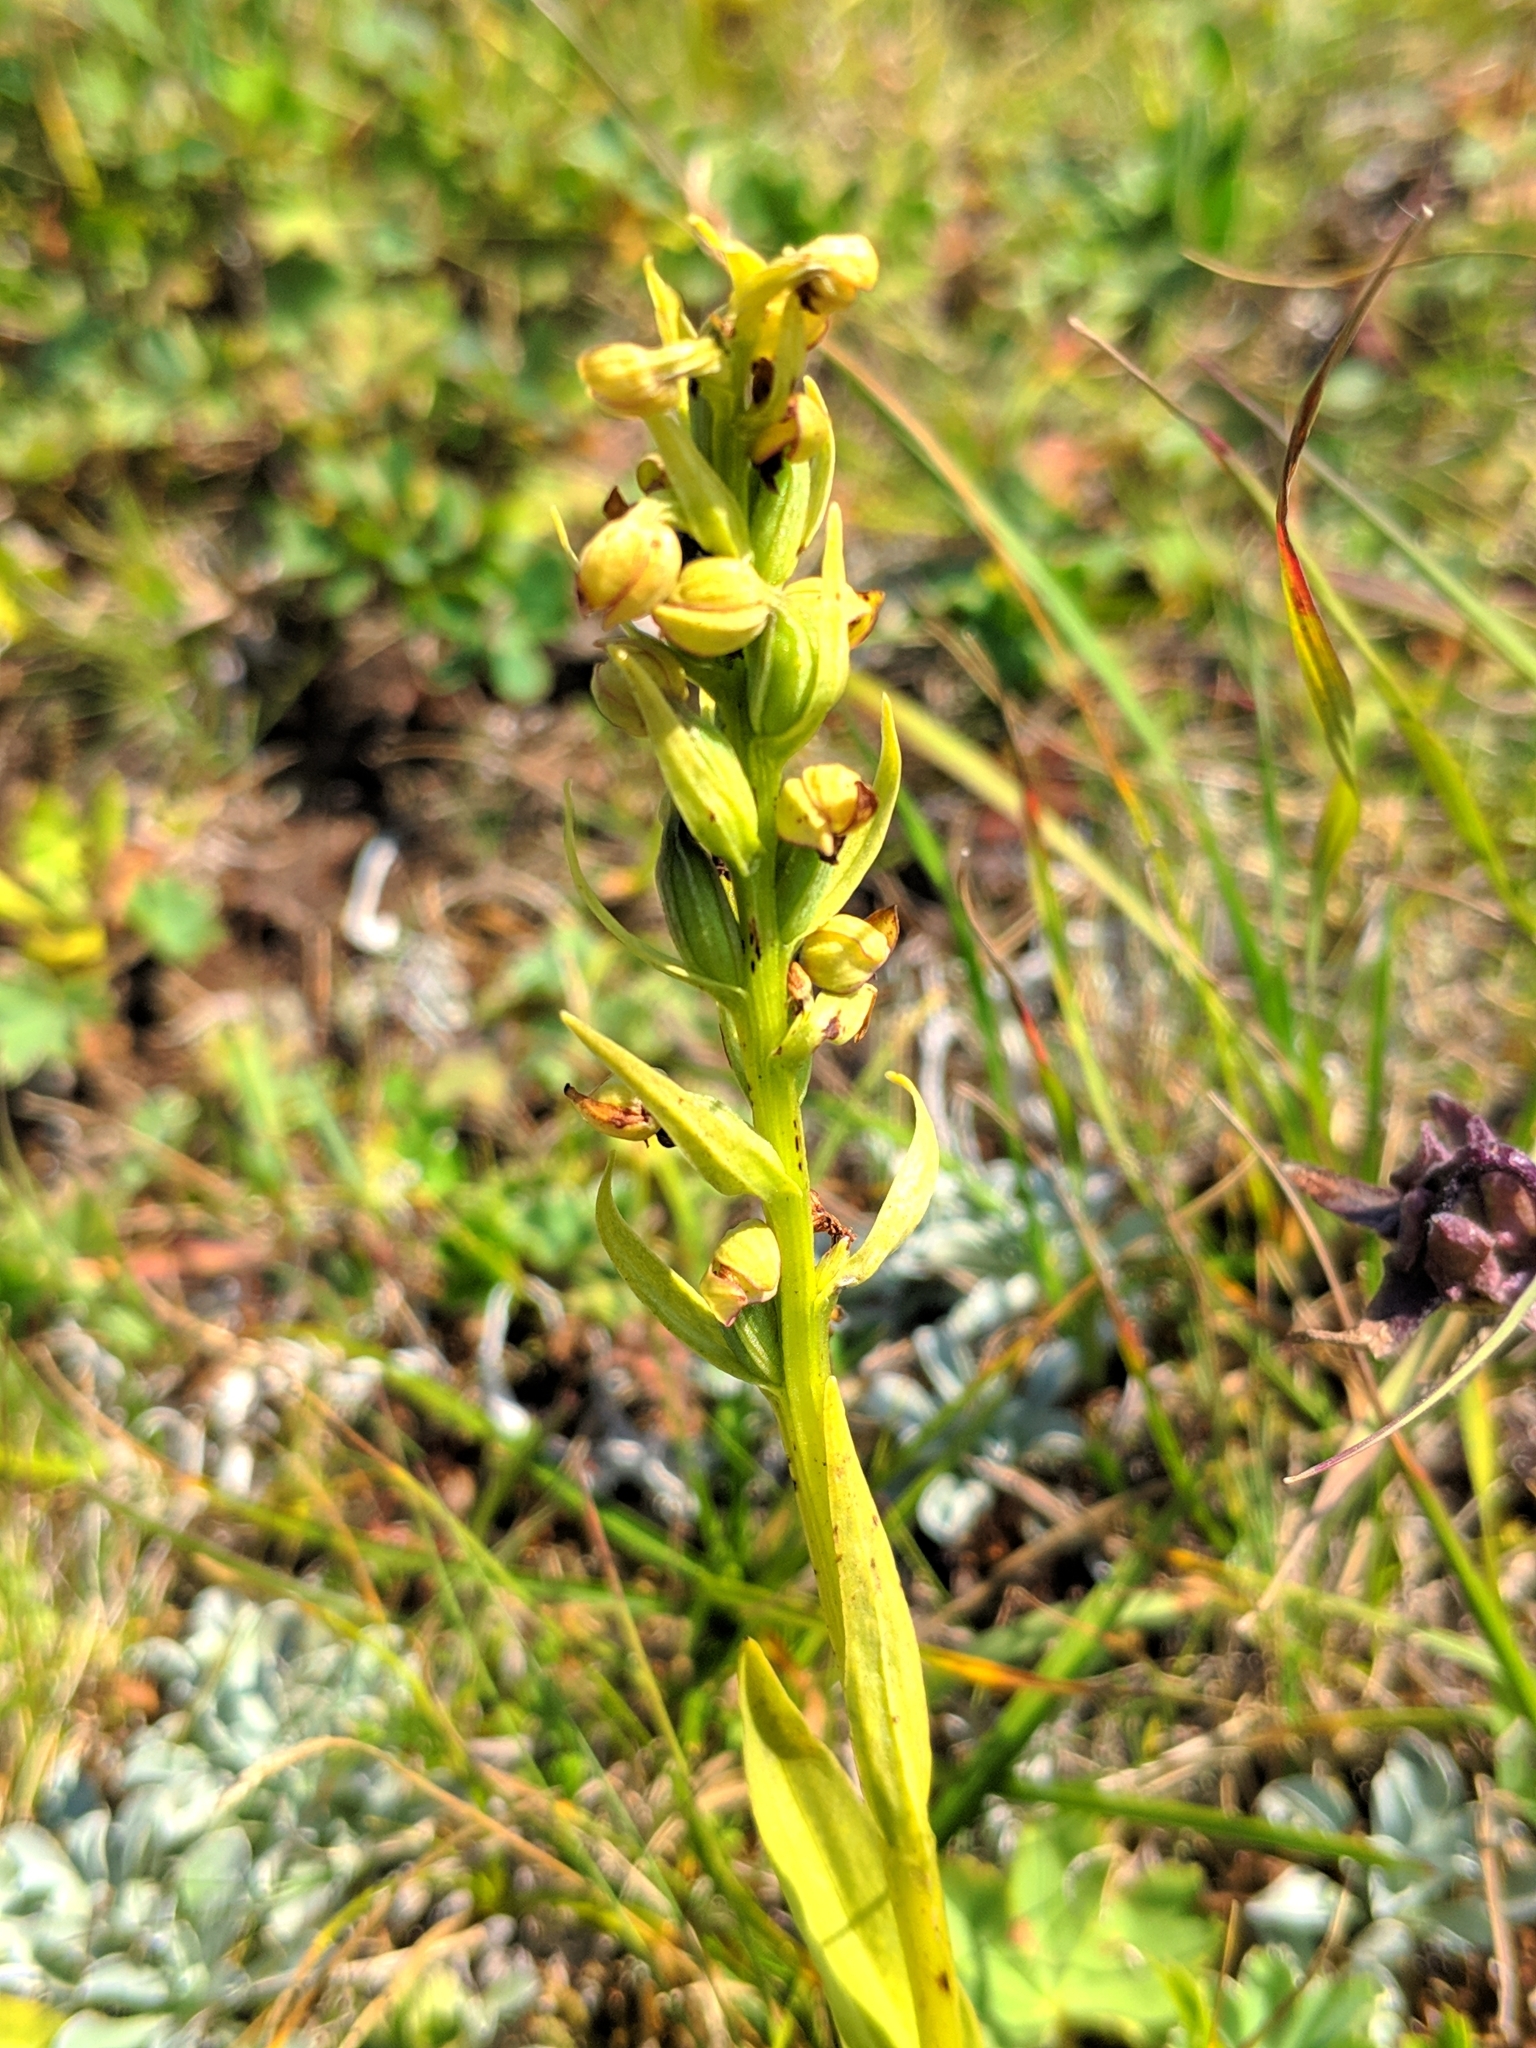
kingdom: Plantae
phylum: Tracheophyta
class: Liliopsida
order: Asparagales
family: Orchidaceae
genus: Dactylorhiza
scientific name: Dactylorhiza viridis
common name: Longbract frog orchid
